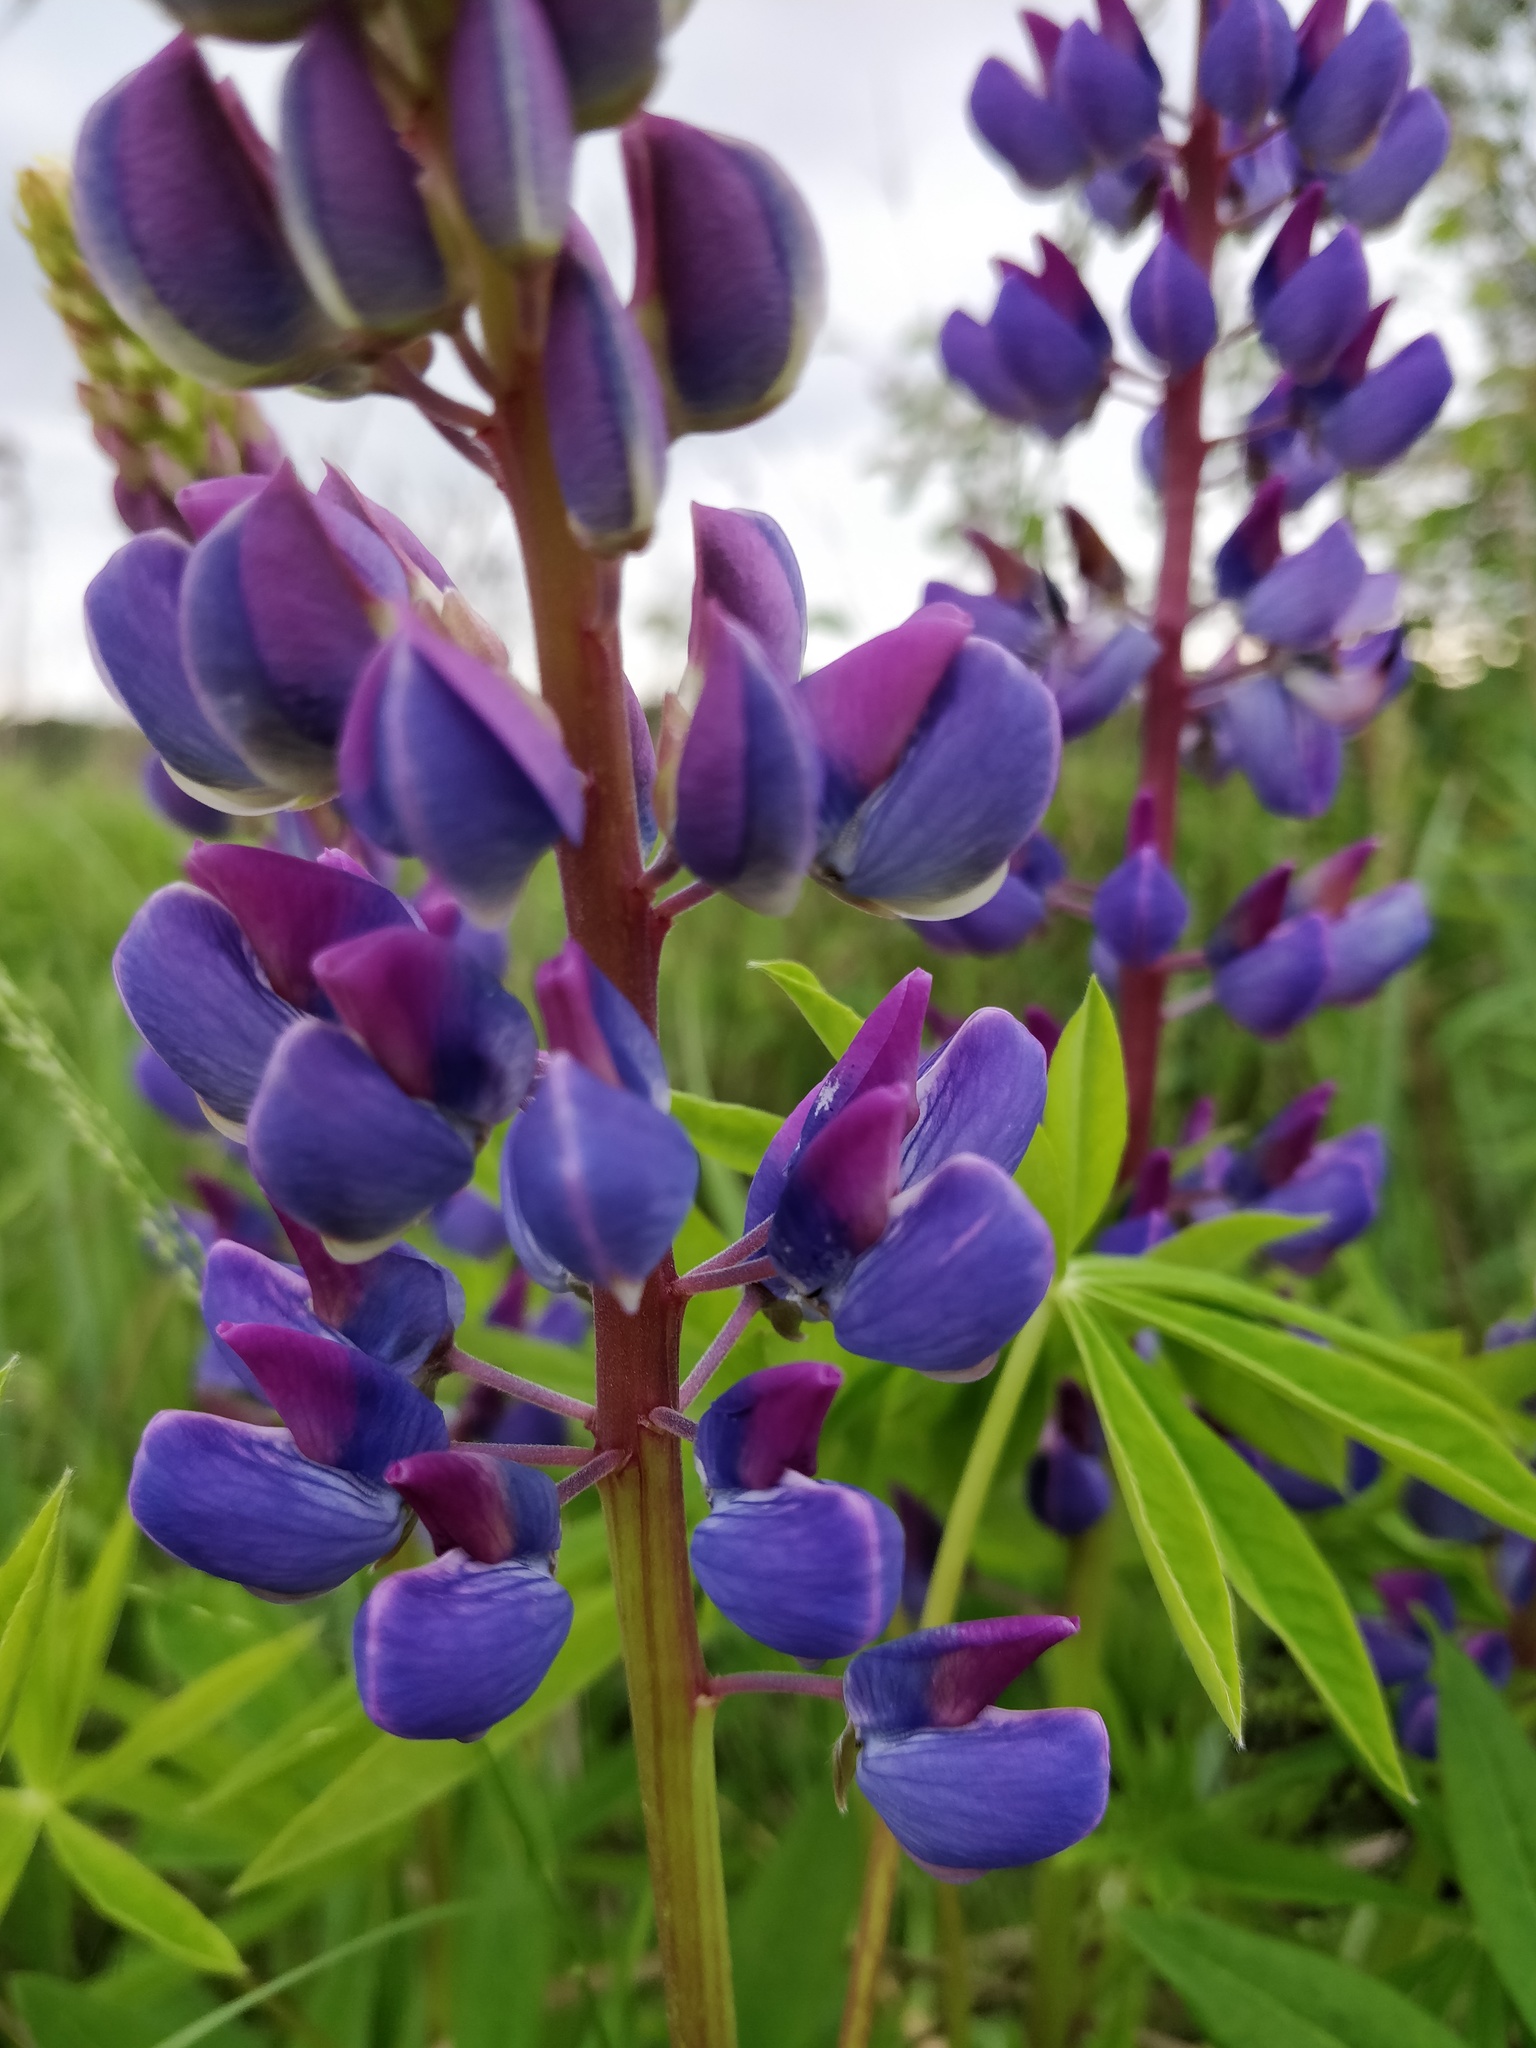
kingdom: Plantae
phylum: Tracheophyta
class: Magnoliopsida
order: Fabales
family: Fabaceae
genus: Lupinus
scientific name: Lupinus polyphyllus
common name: Garden lupin
